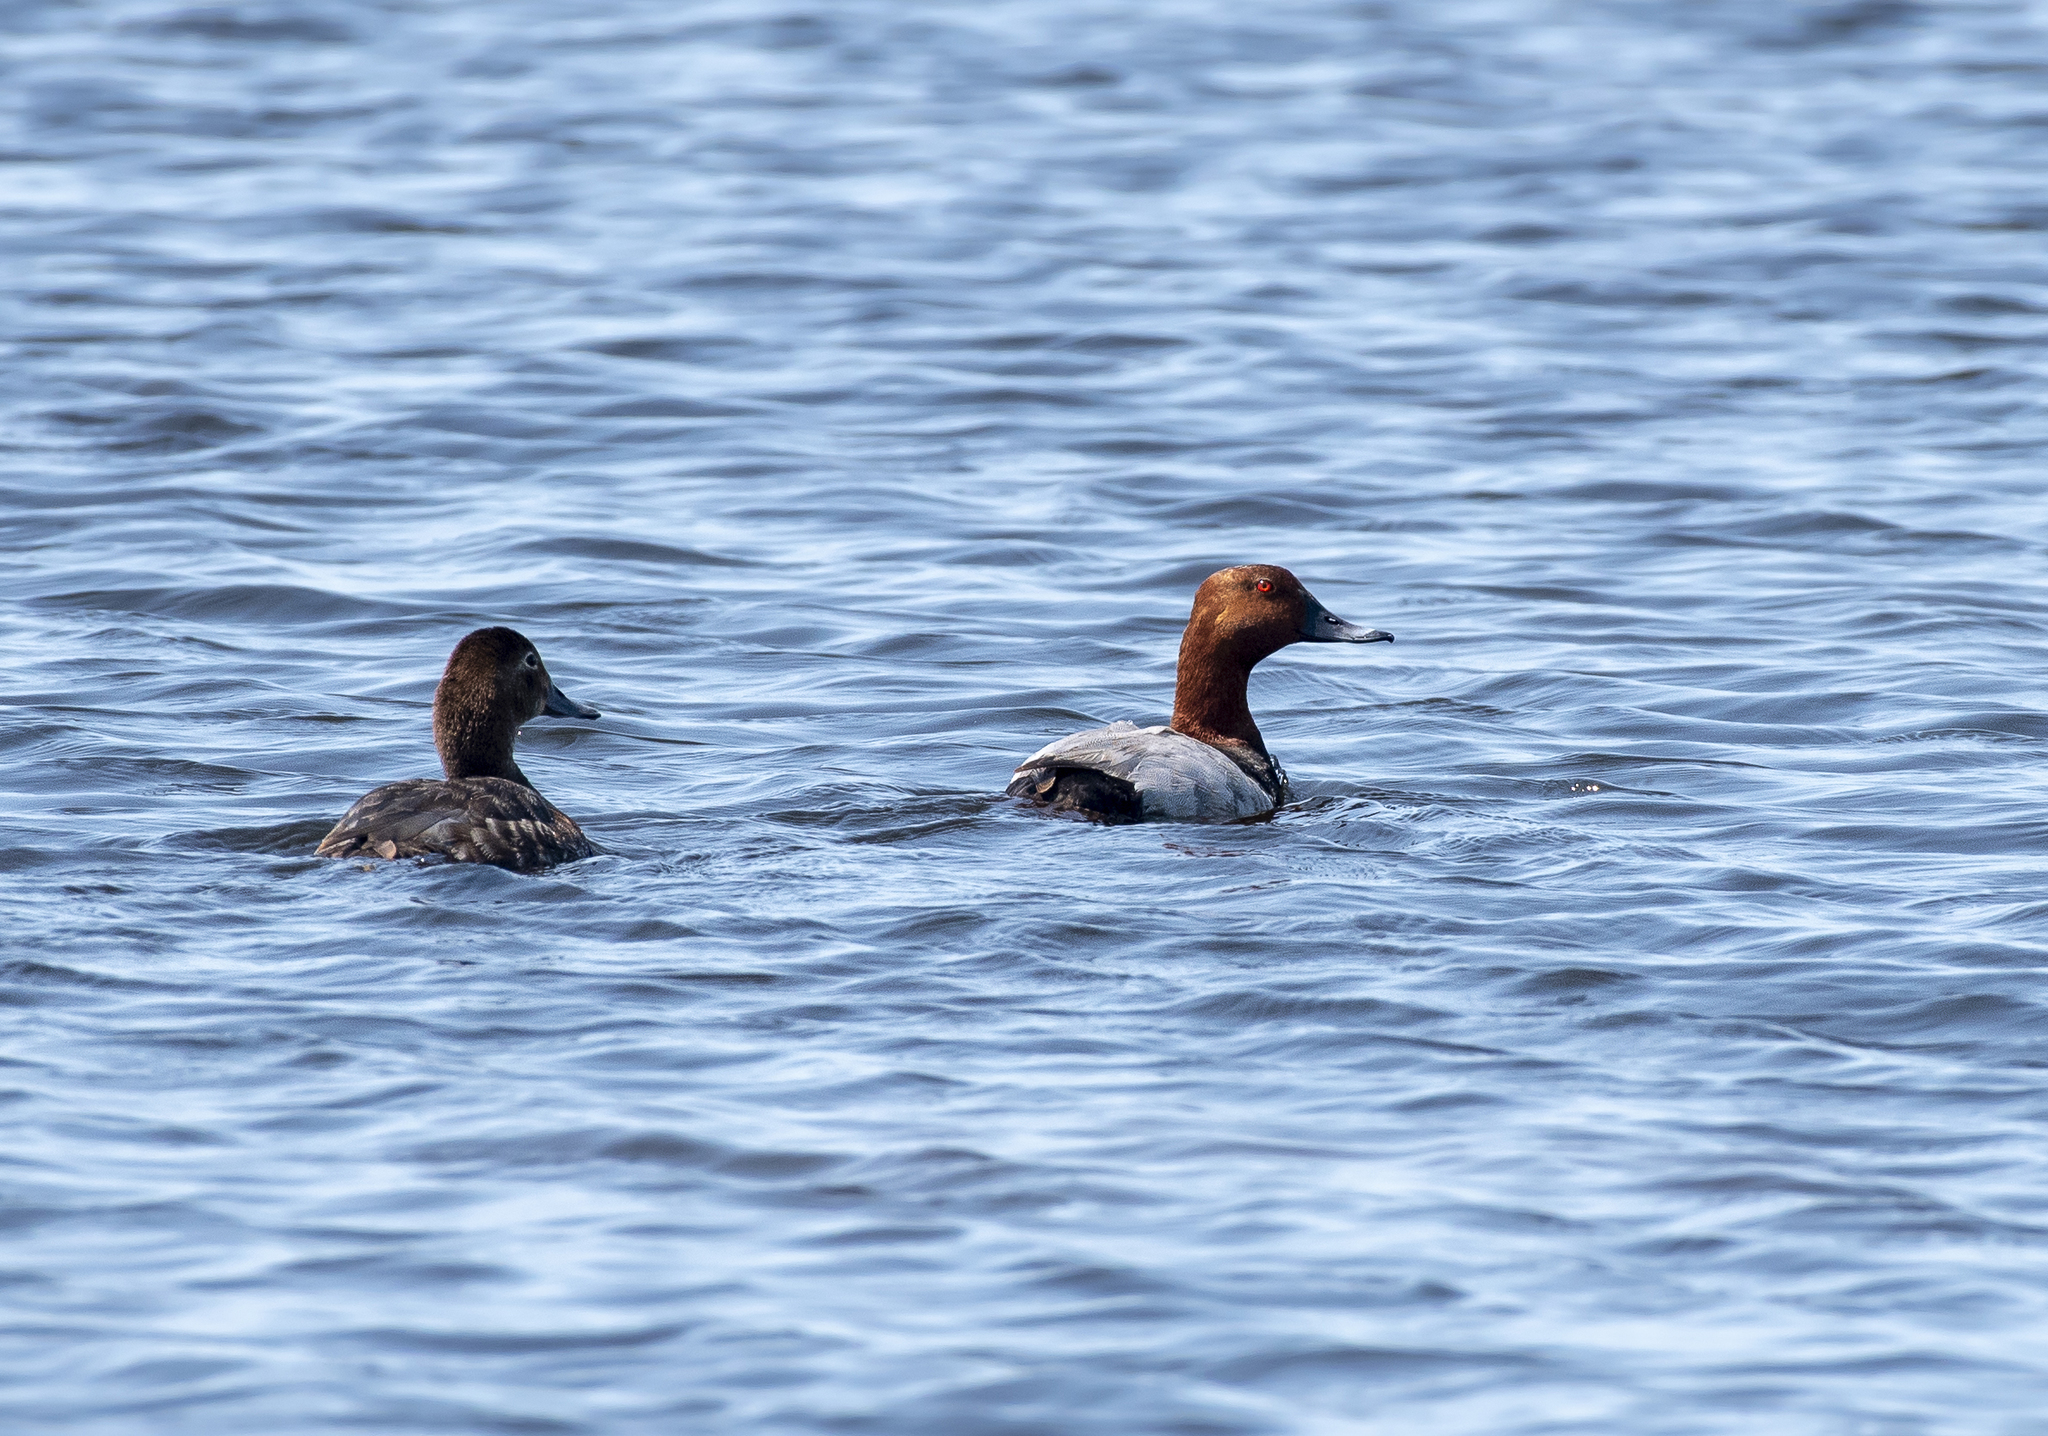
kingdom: Animalia
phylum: Chordata
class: Aves
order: Anseriformes
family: Anatidae
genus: Aythya
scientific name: Aythya ferina
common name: Common pochard
